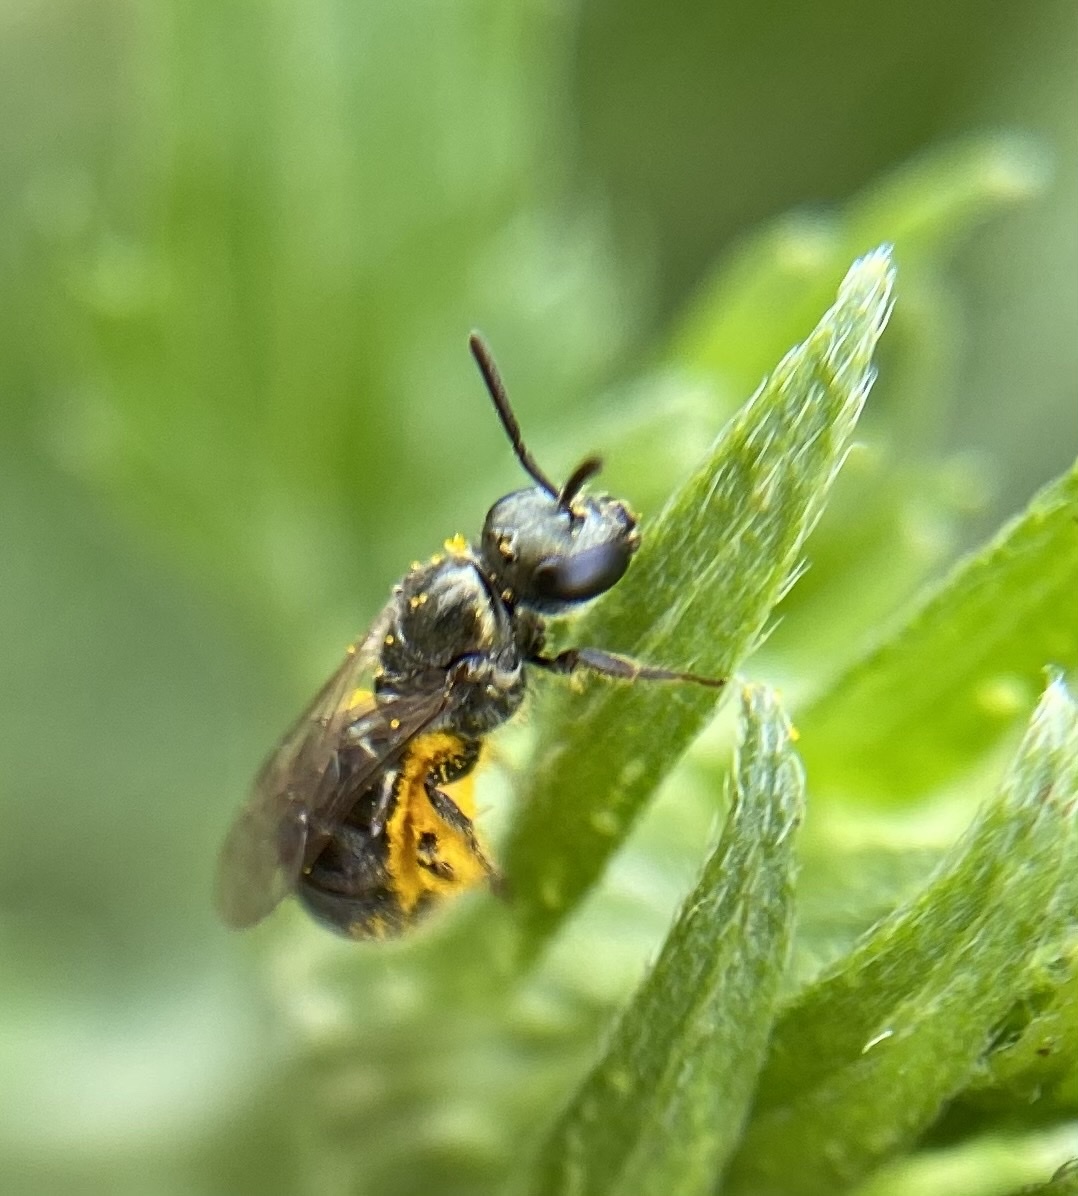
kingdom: Animalia
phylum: Arthropoda
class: Insecta
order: Hymenoptera
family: Halictidae
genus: Dialictus
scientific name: Dialictus
